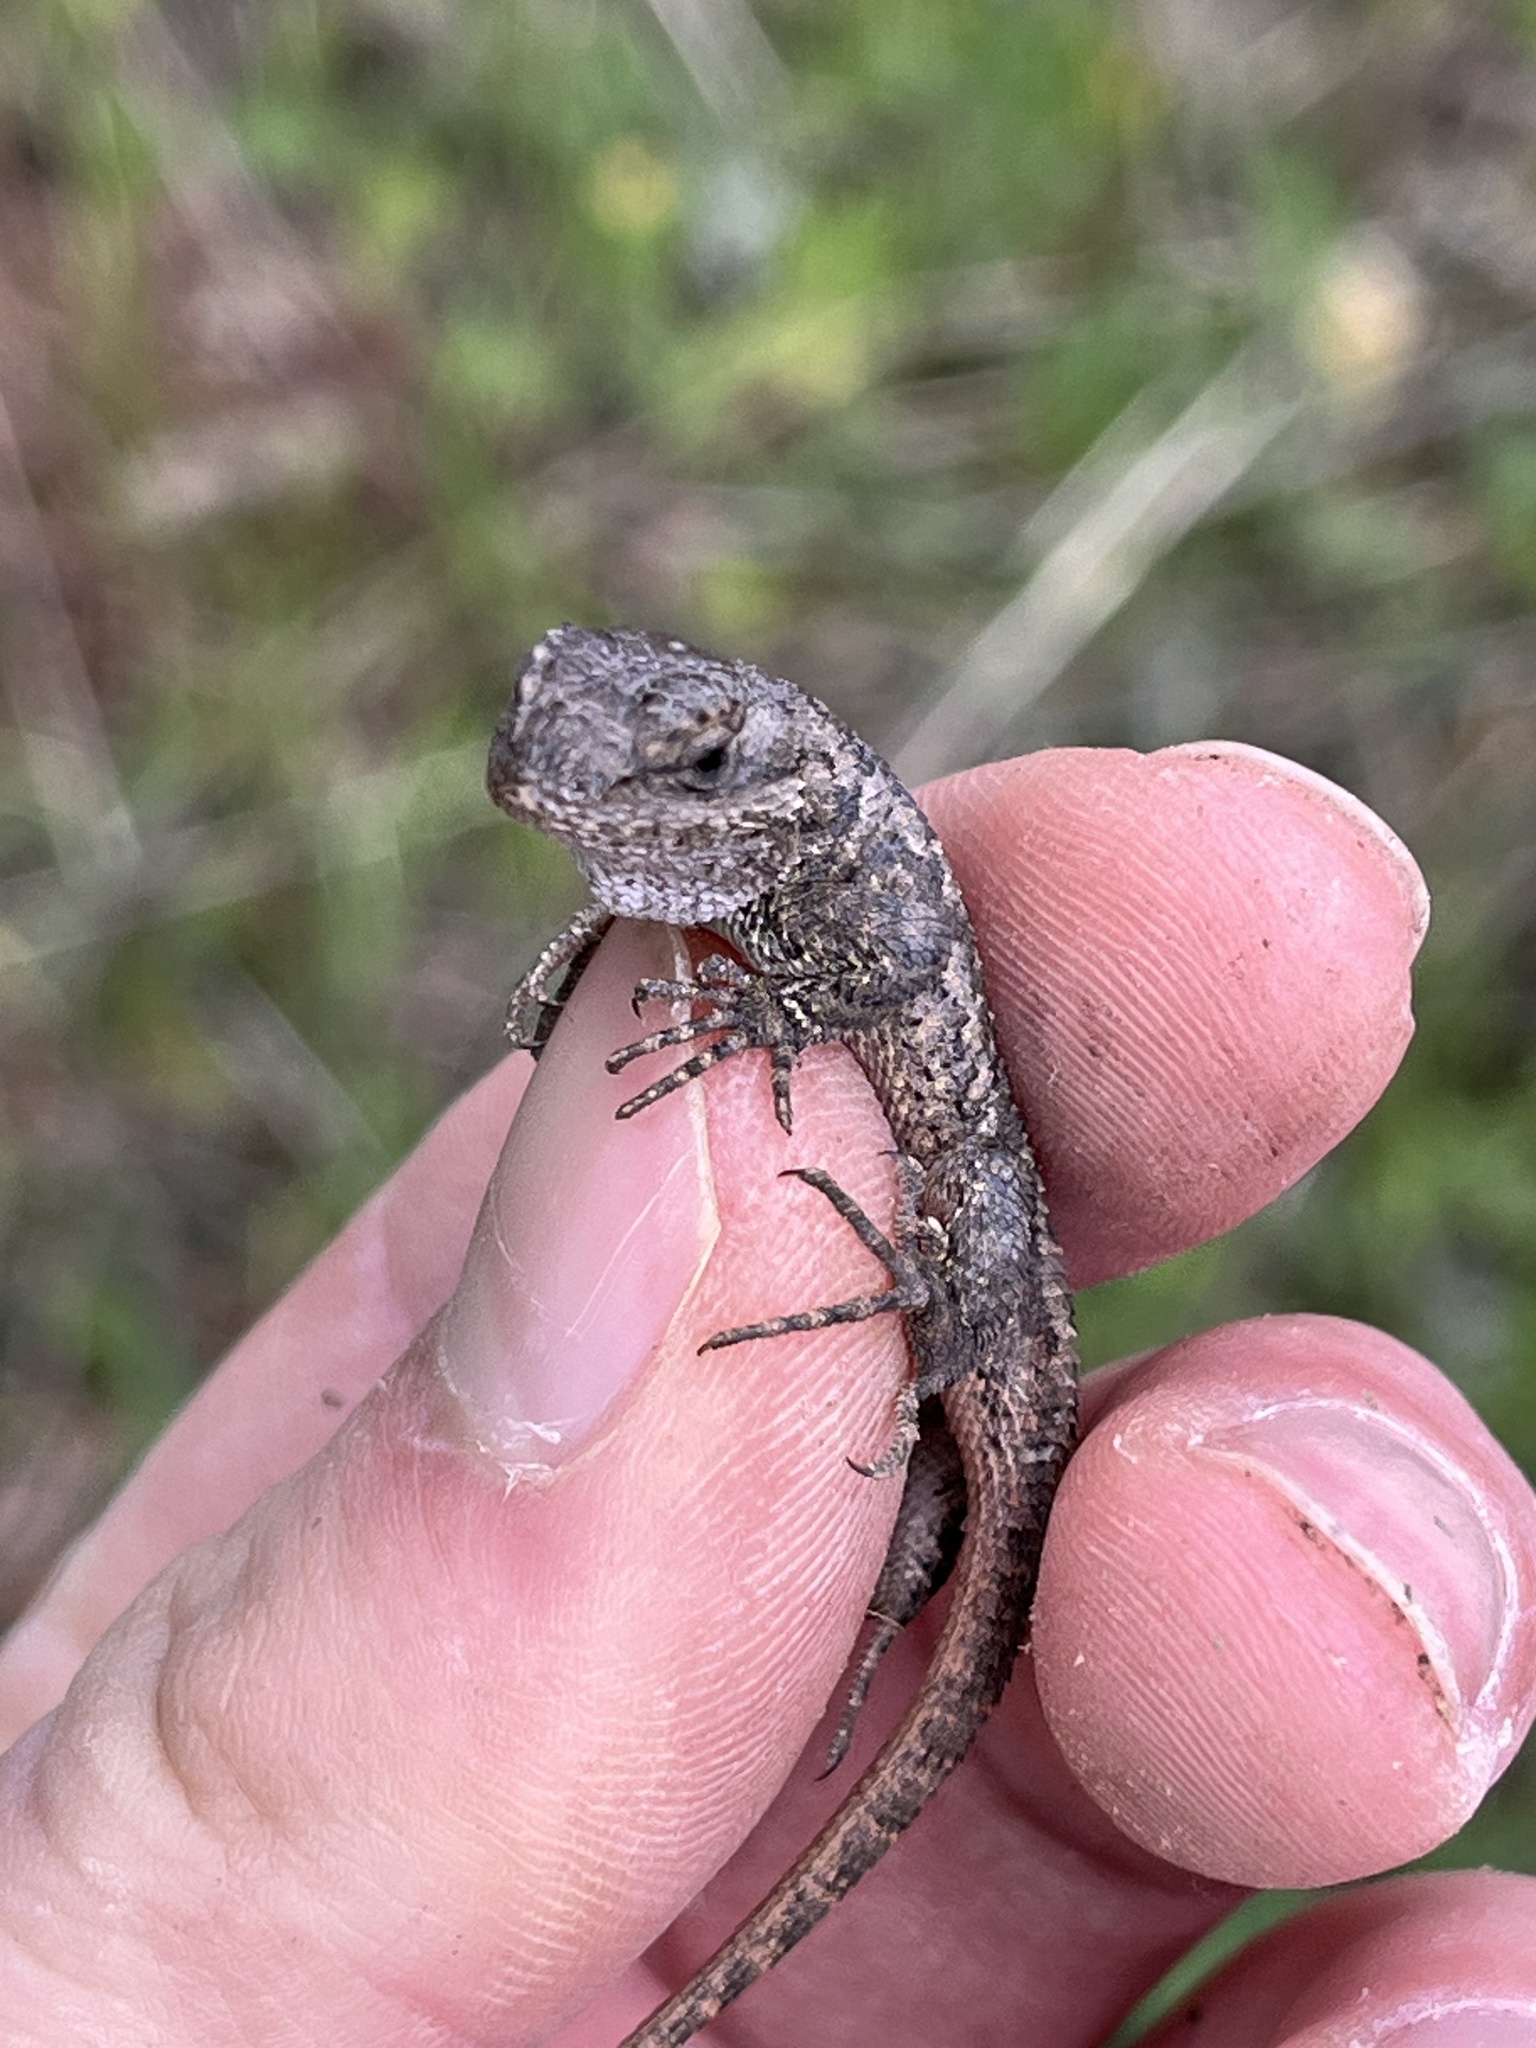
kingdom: Animalia
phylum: Chordata
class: Squamata
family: Phrynosomatidae
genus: Sceloporus
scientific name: Sceloporus occidentalis
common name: Western fence lizard
